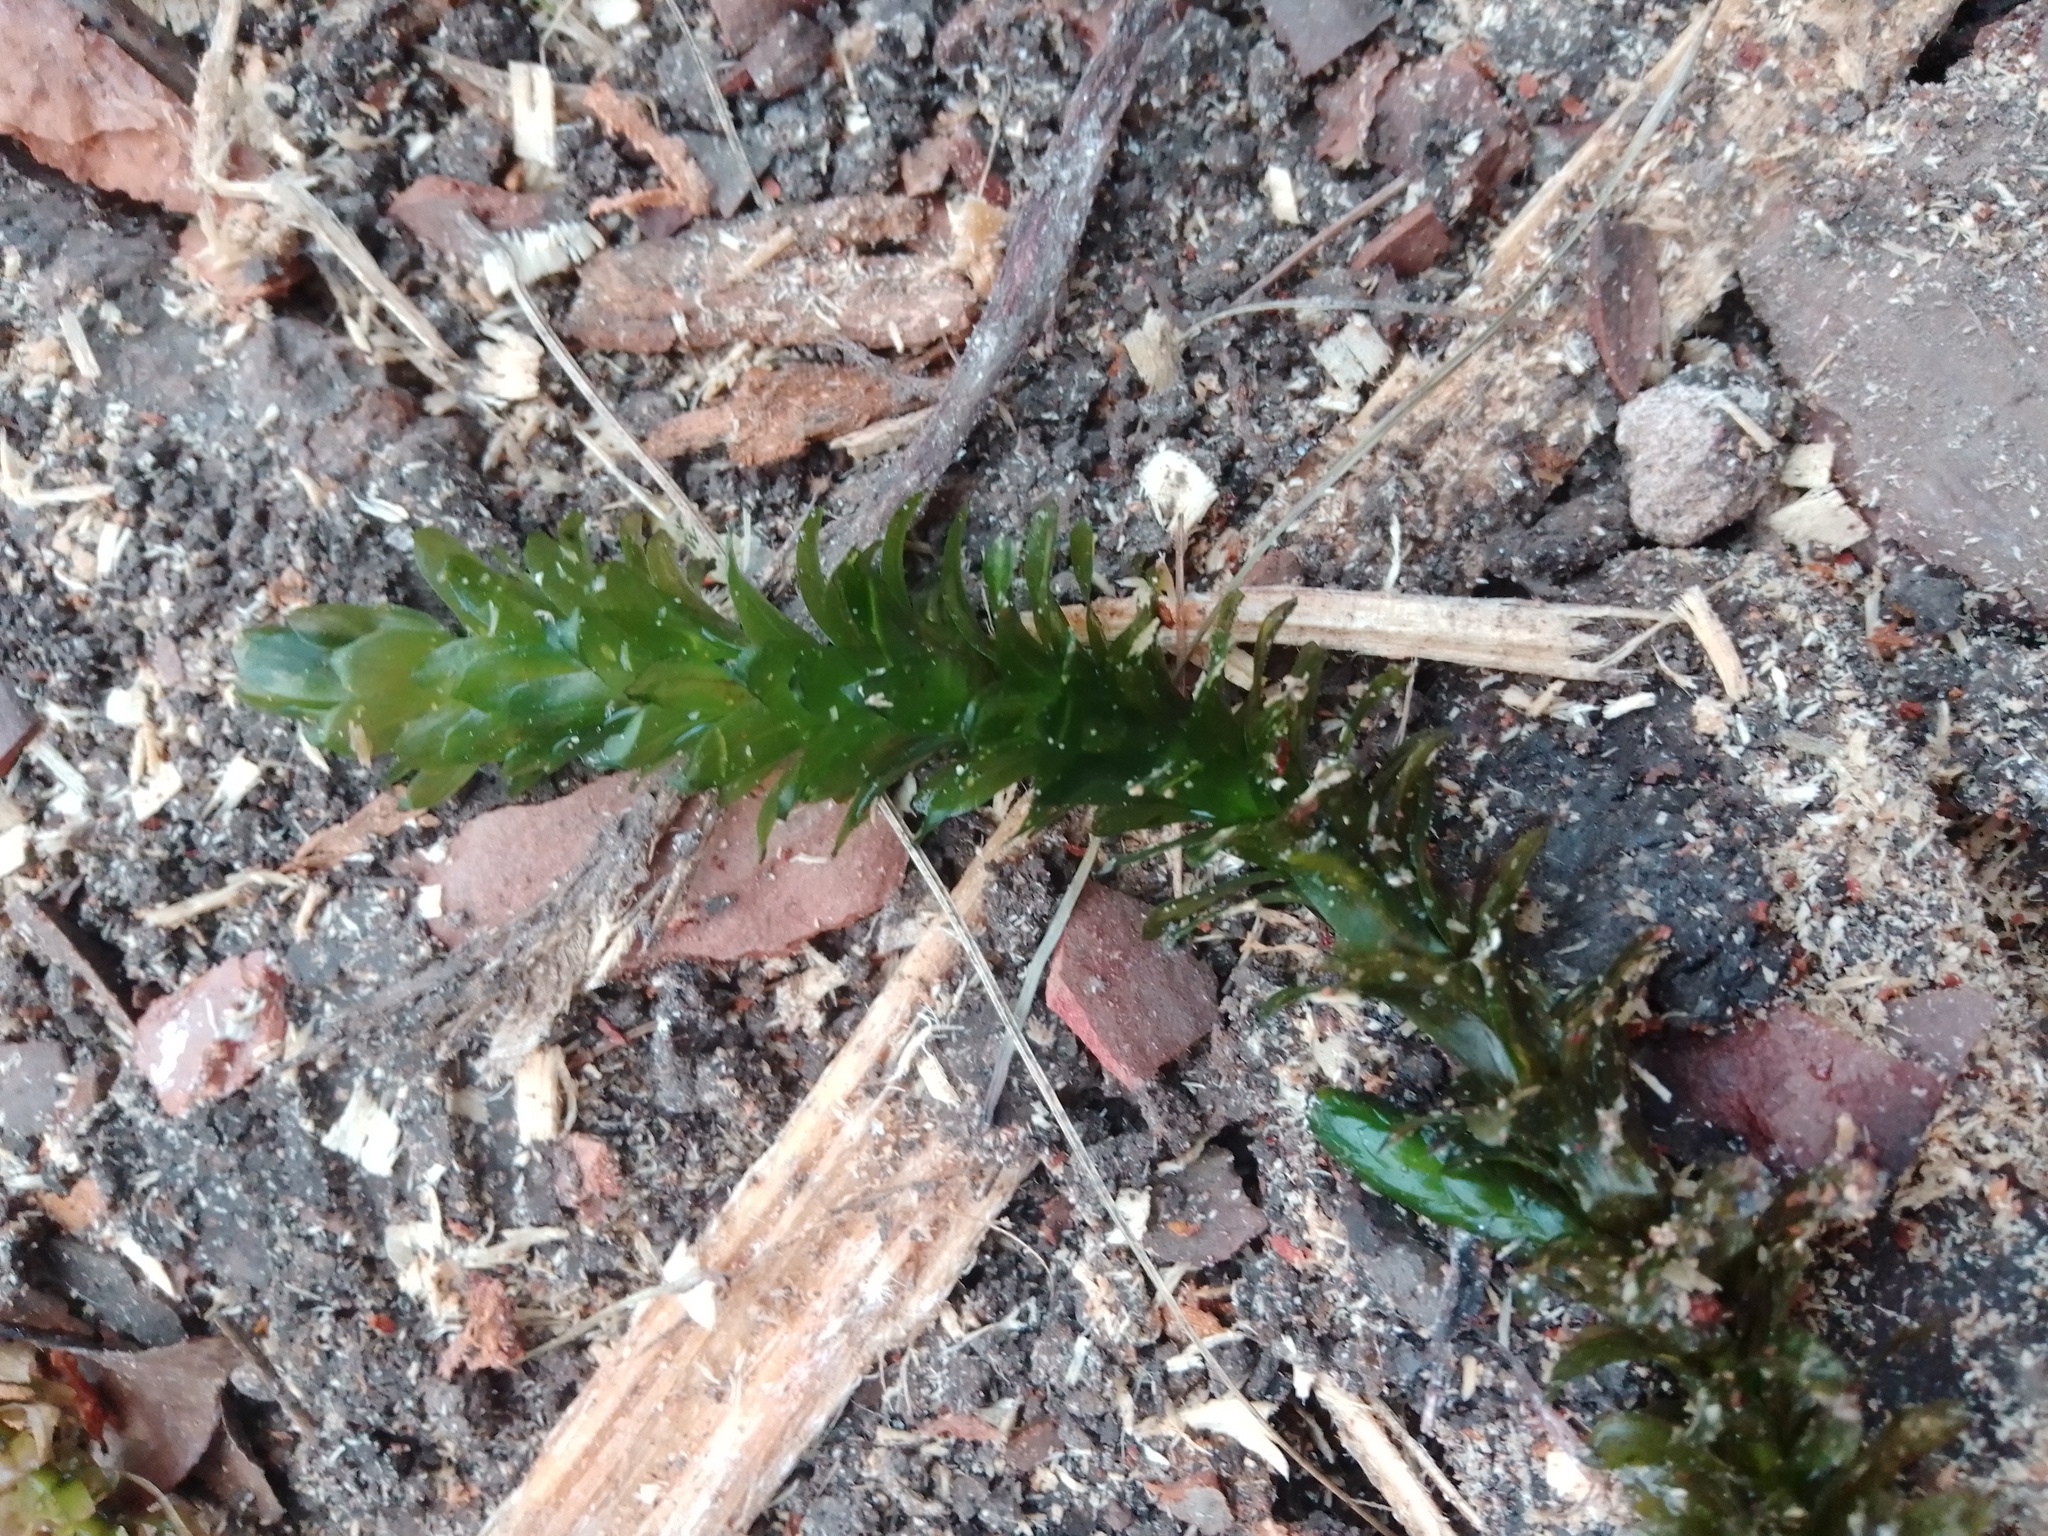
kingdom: Plantae
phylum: Tracheophyta
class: Liliopsida
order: Alismatales
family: Hydrocharitaceae
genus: Elodea
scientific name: Elodea densa
